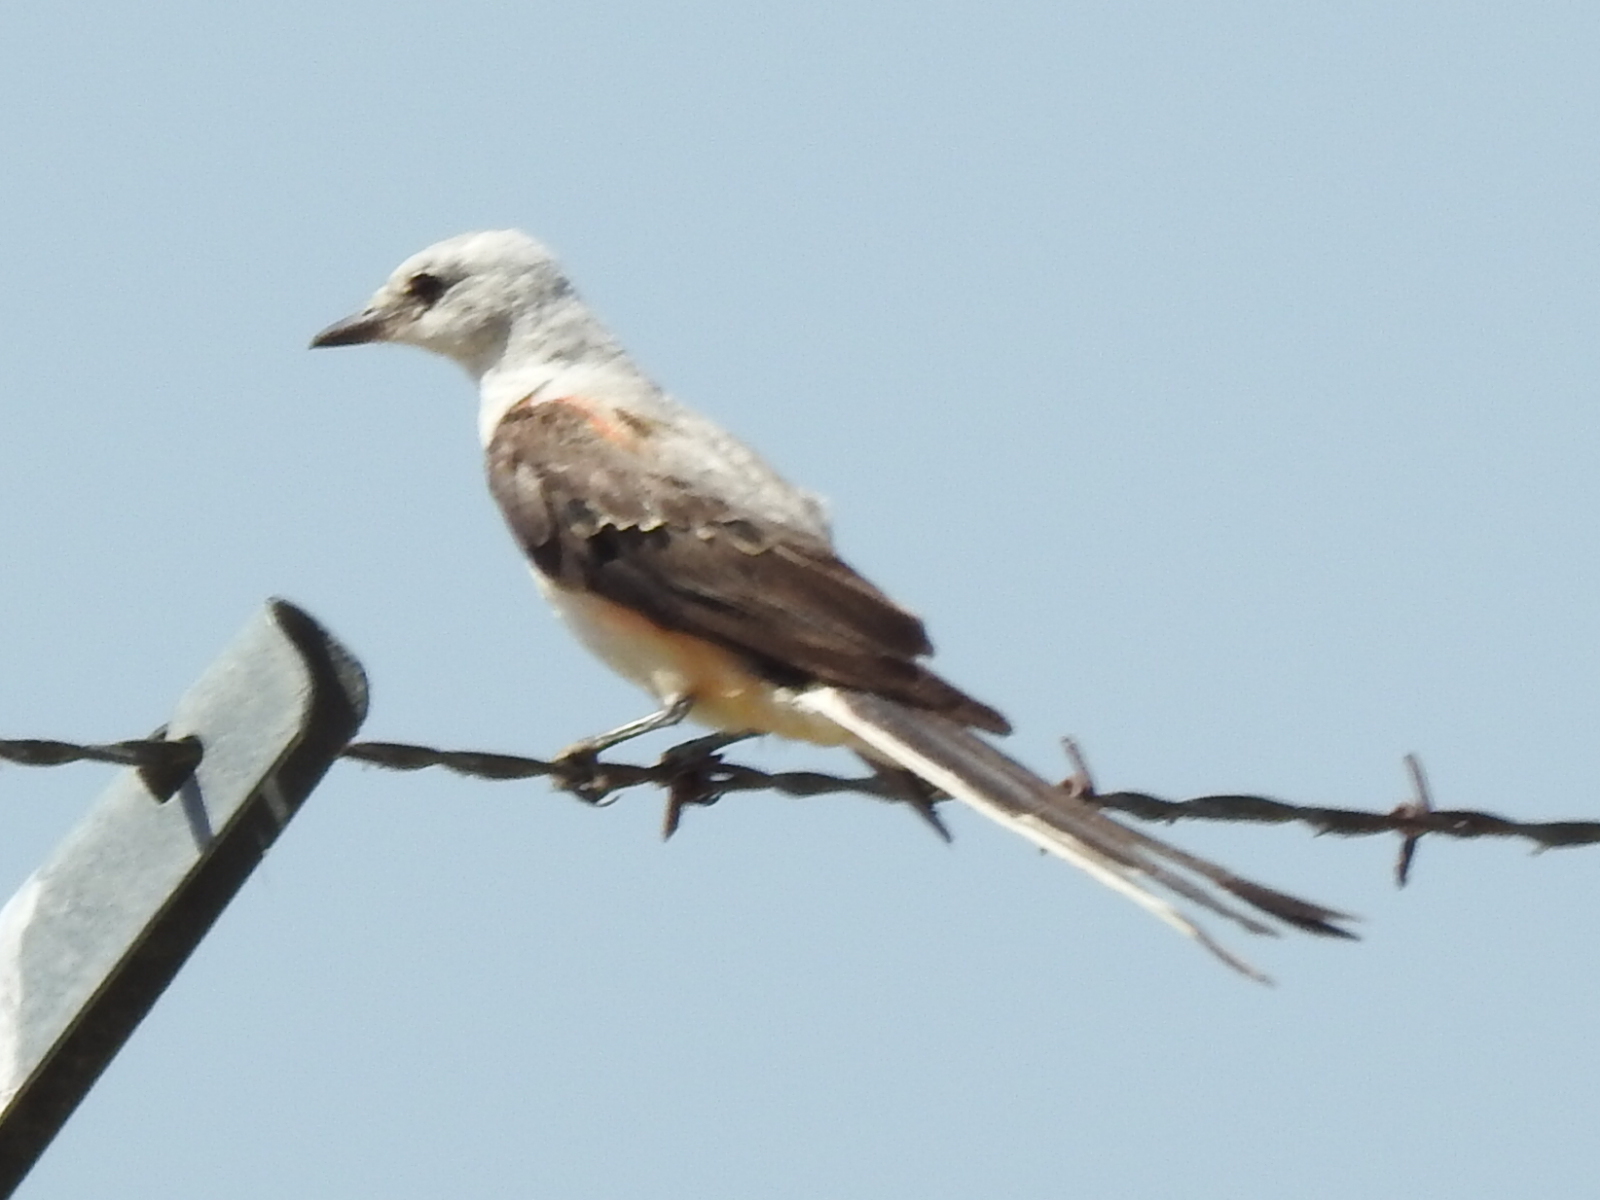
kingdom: Animalia
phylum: Chordata
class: Aves
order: Passeriformes
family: Tyrannidae
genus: Tyrannus
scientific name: Tyrannus forficatus
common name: Scissor-tailed flycatcher
